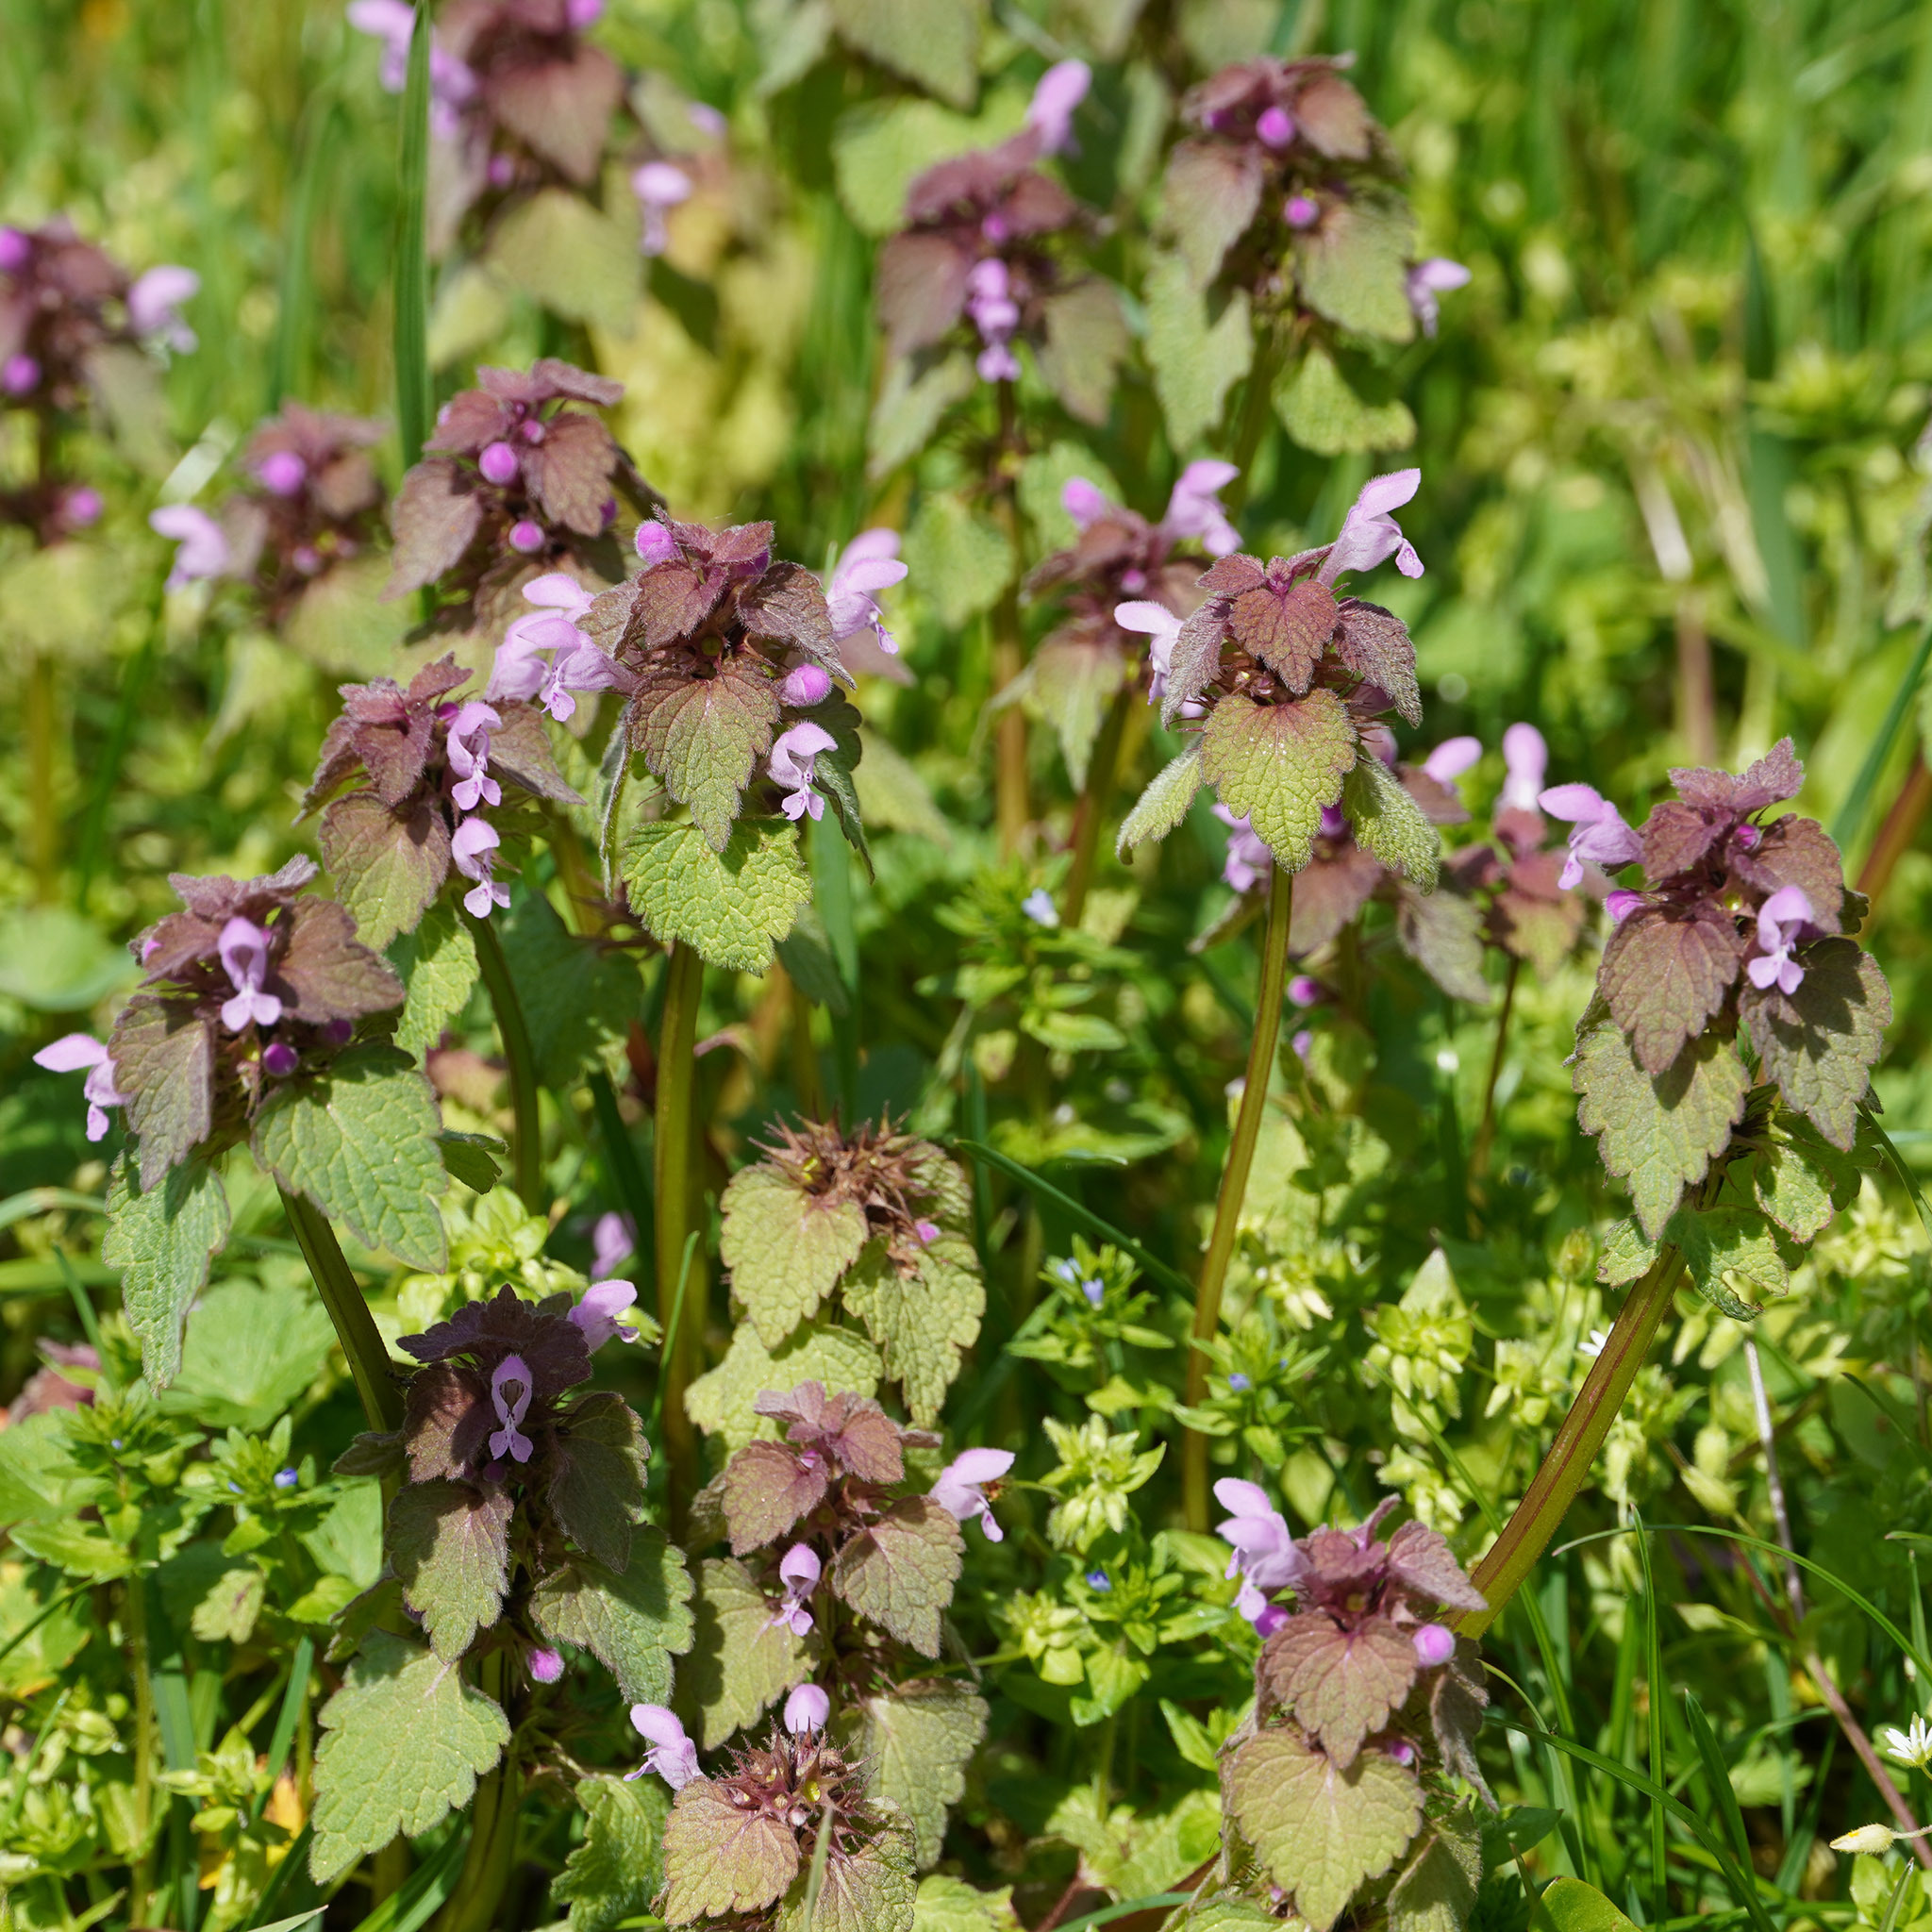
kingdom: Plantae
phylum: Tracheophyta
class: Magnoliopsida
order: Lamiales
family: Lamiaceae
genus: Lamium
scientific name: Lamium purpureum
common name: Red dead-nettle
